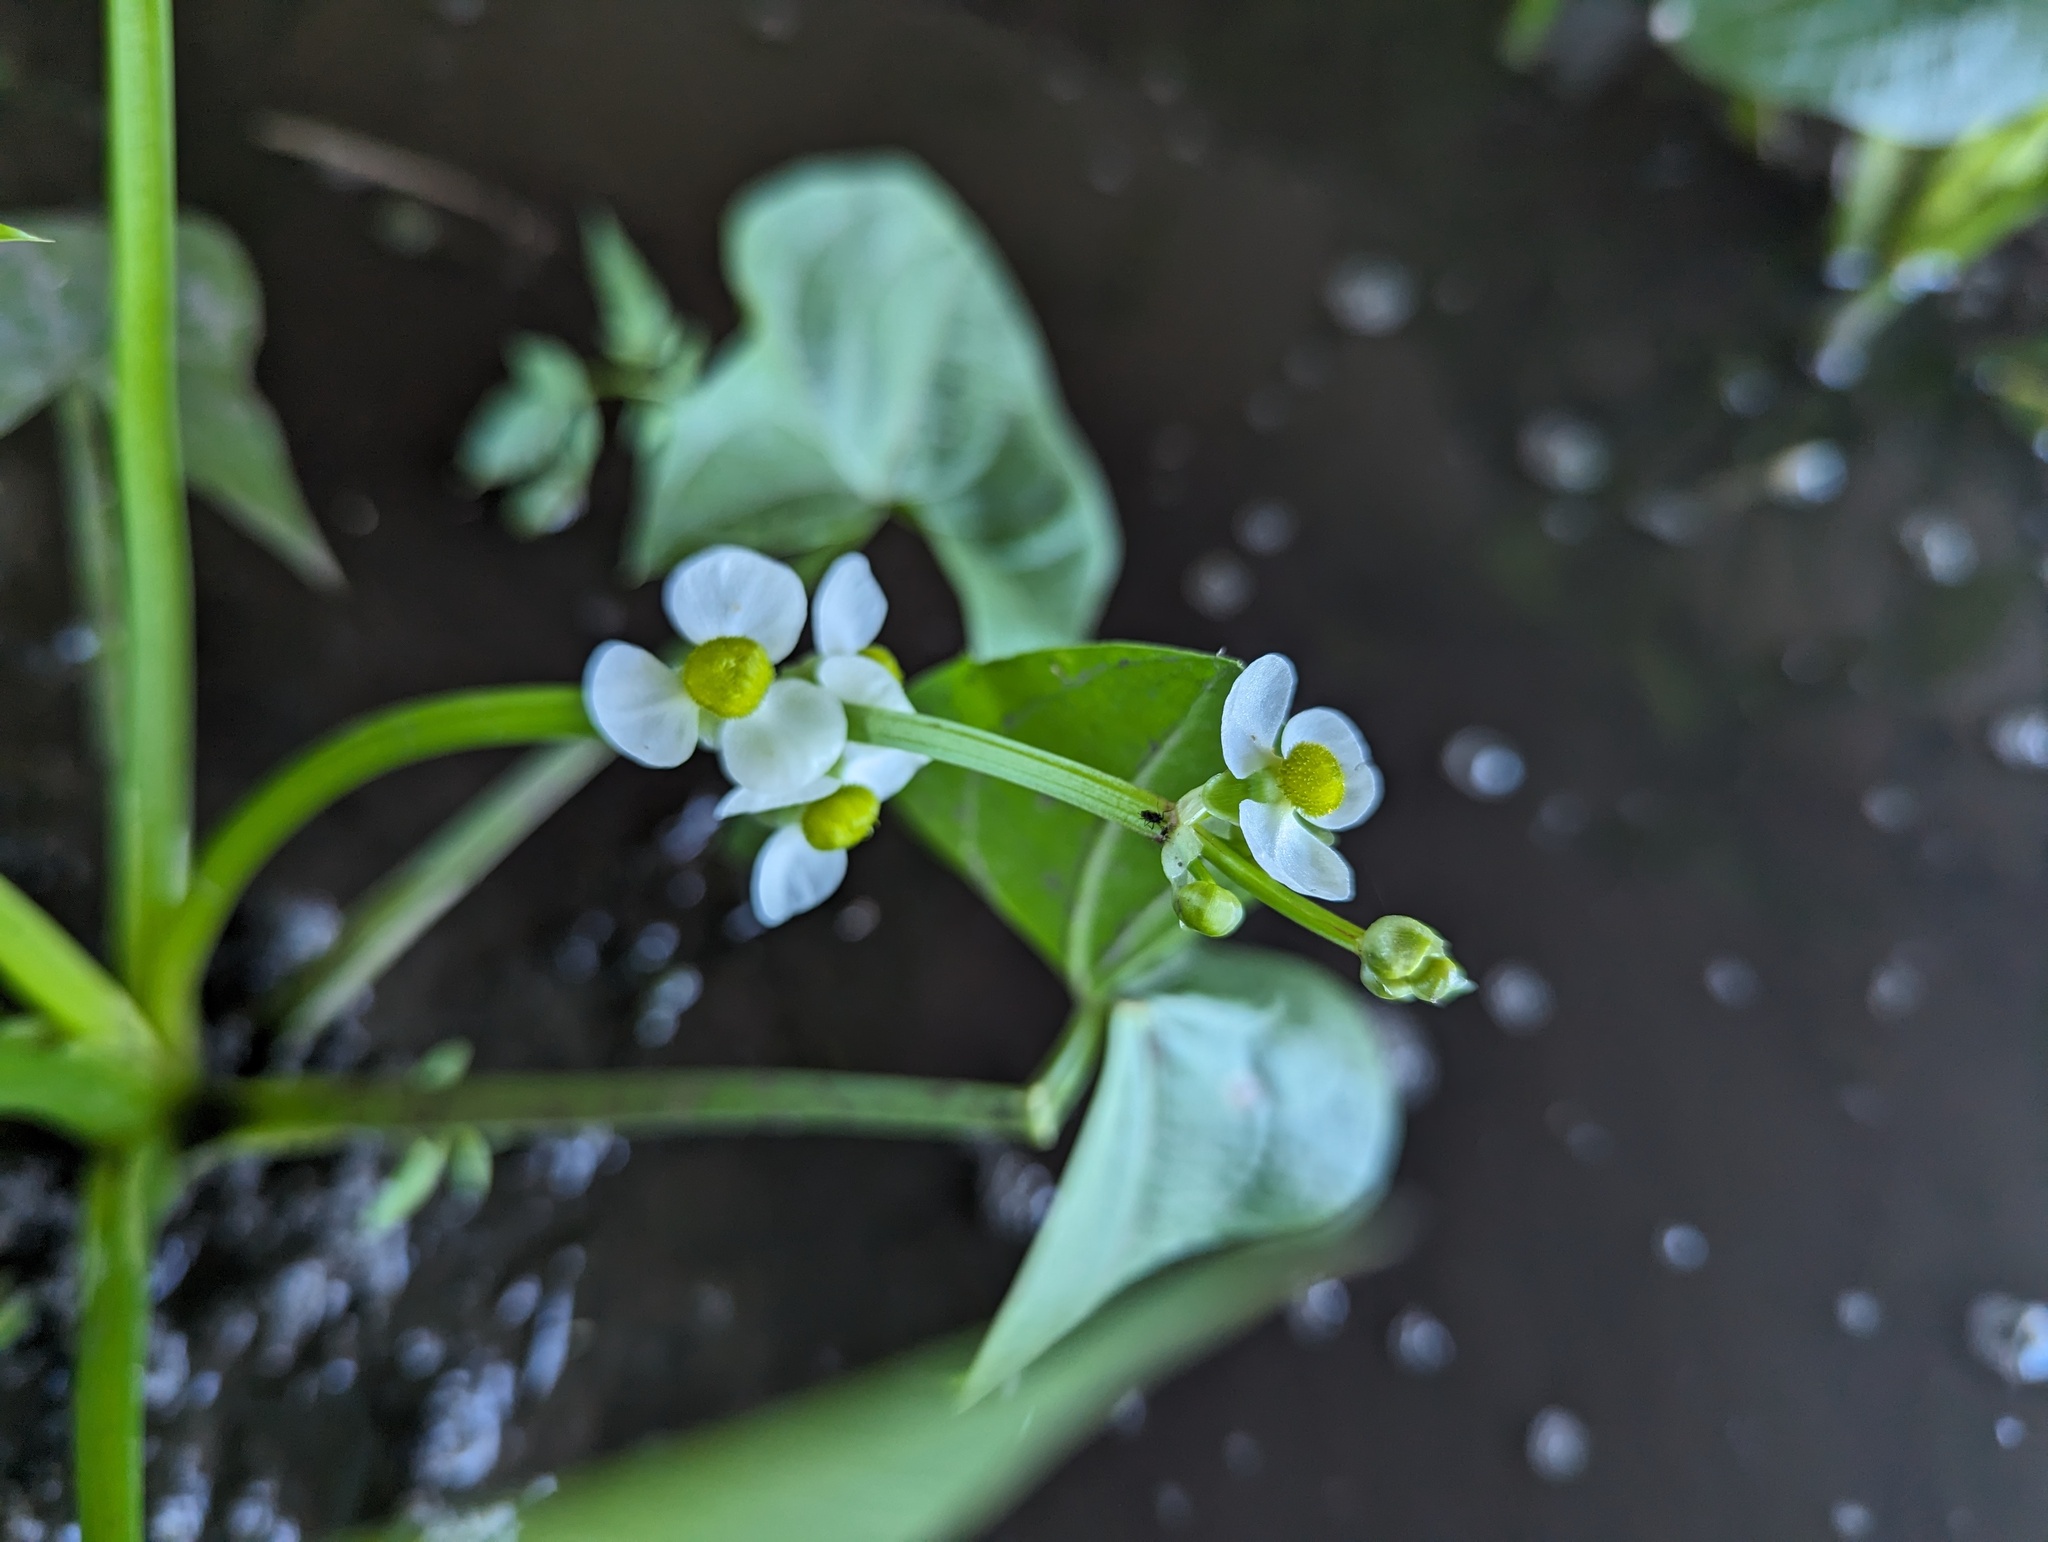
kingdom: Plantae
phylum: Tracheophyta
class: Liliopsida
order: Alismatales
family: Alismataceae
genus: Sagittaria
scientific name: Sagittaria latifolia
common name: Duck-potato
